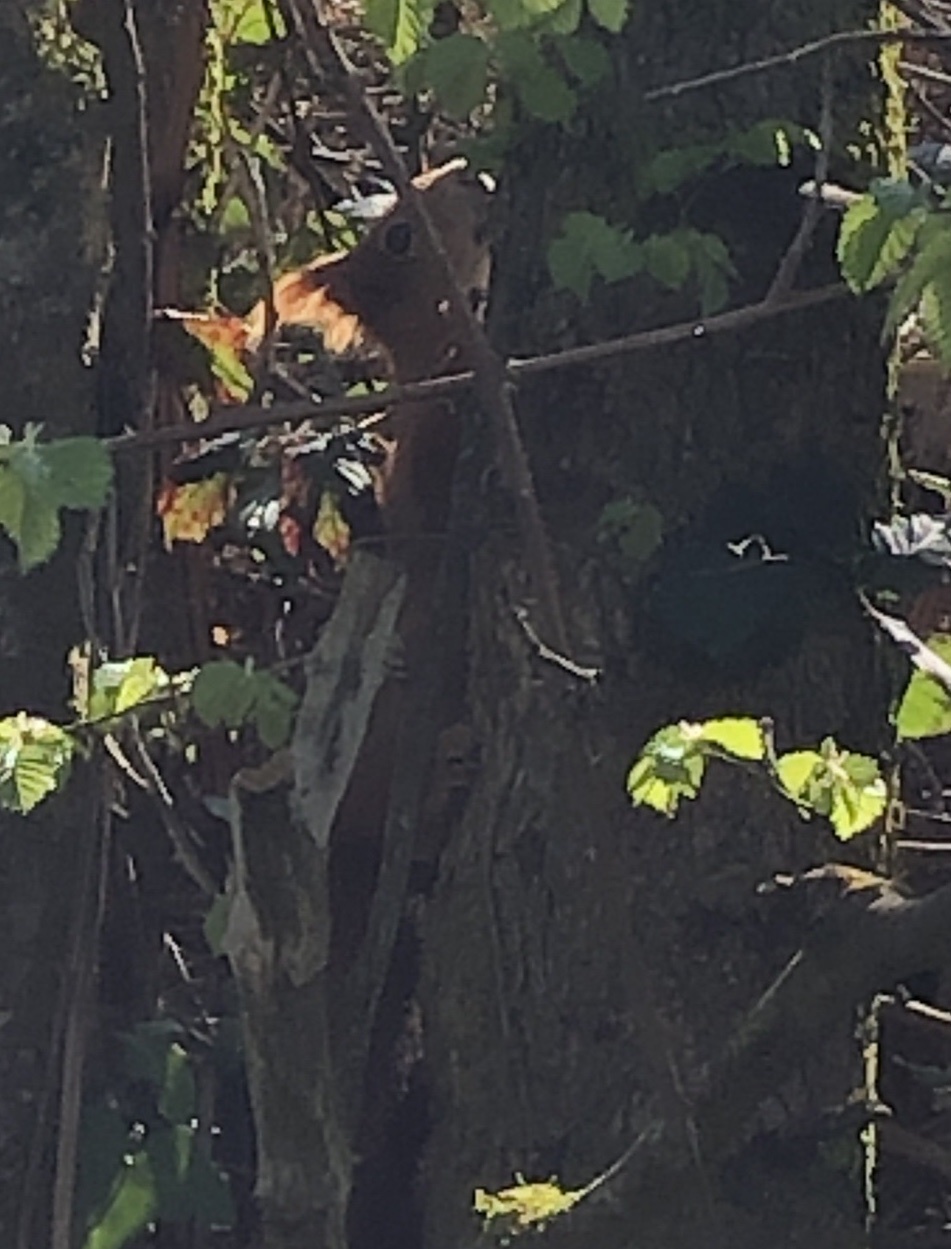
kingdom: Animalia
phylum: Chordata
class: Mammalia
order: Rodentia
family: Sciuridae
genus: Sciurus
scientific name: Sciurus vulgaris
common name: Eurasian red squirrel
